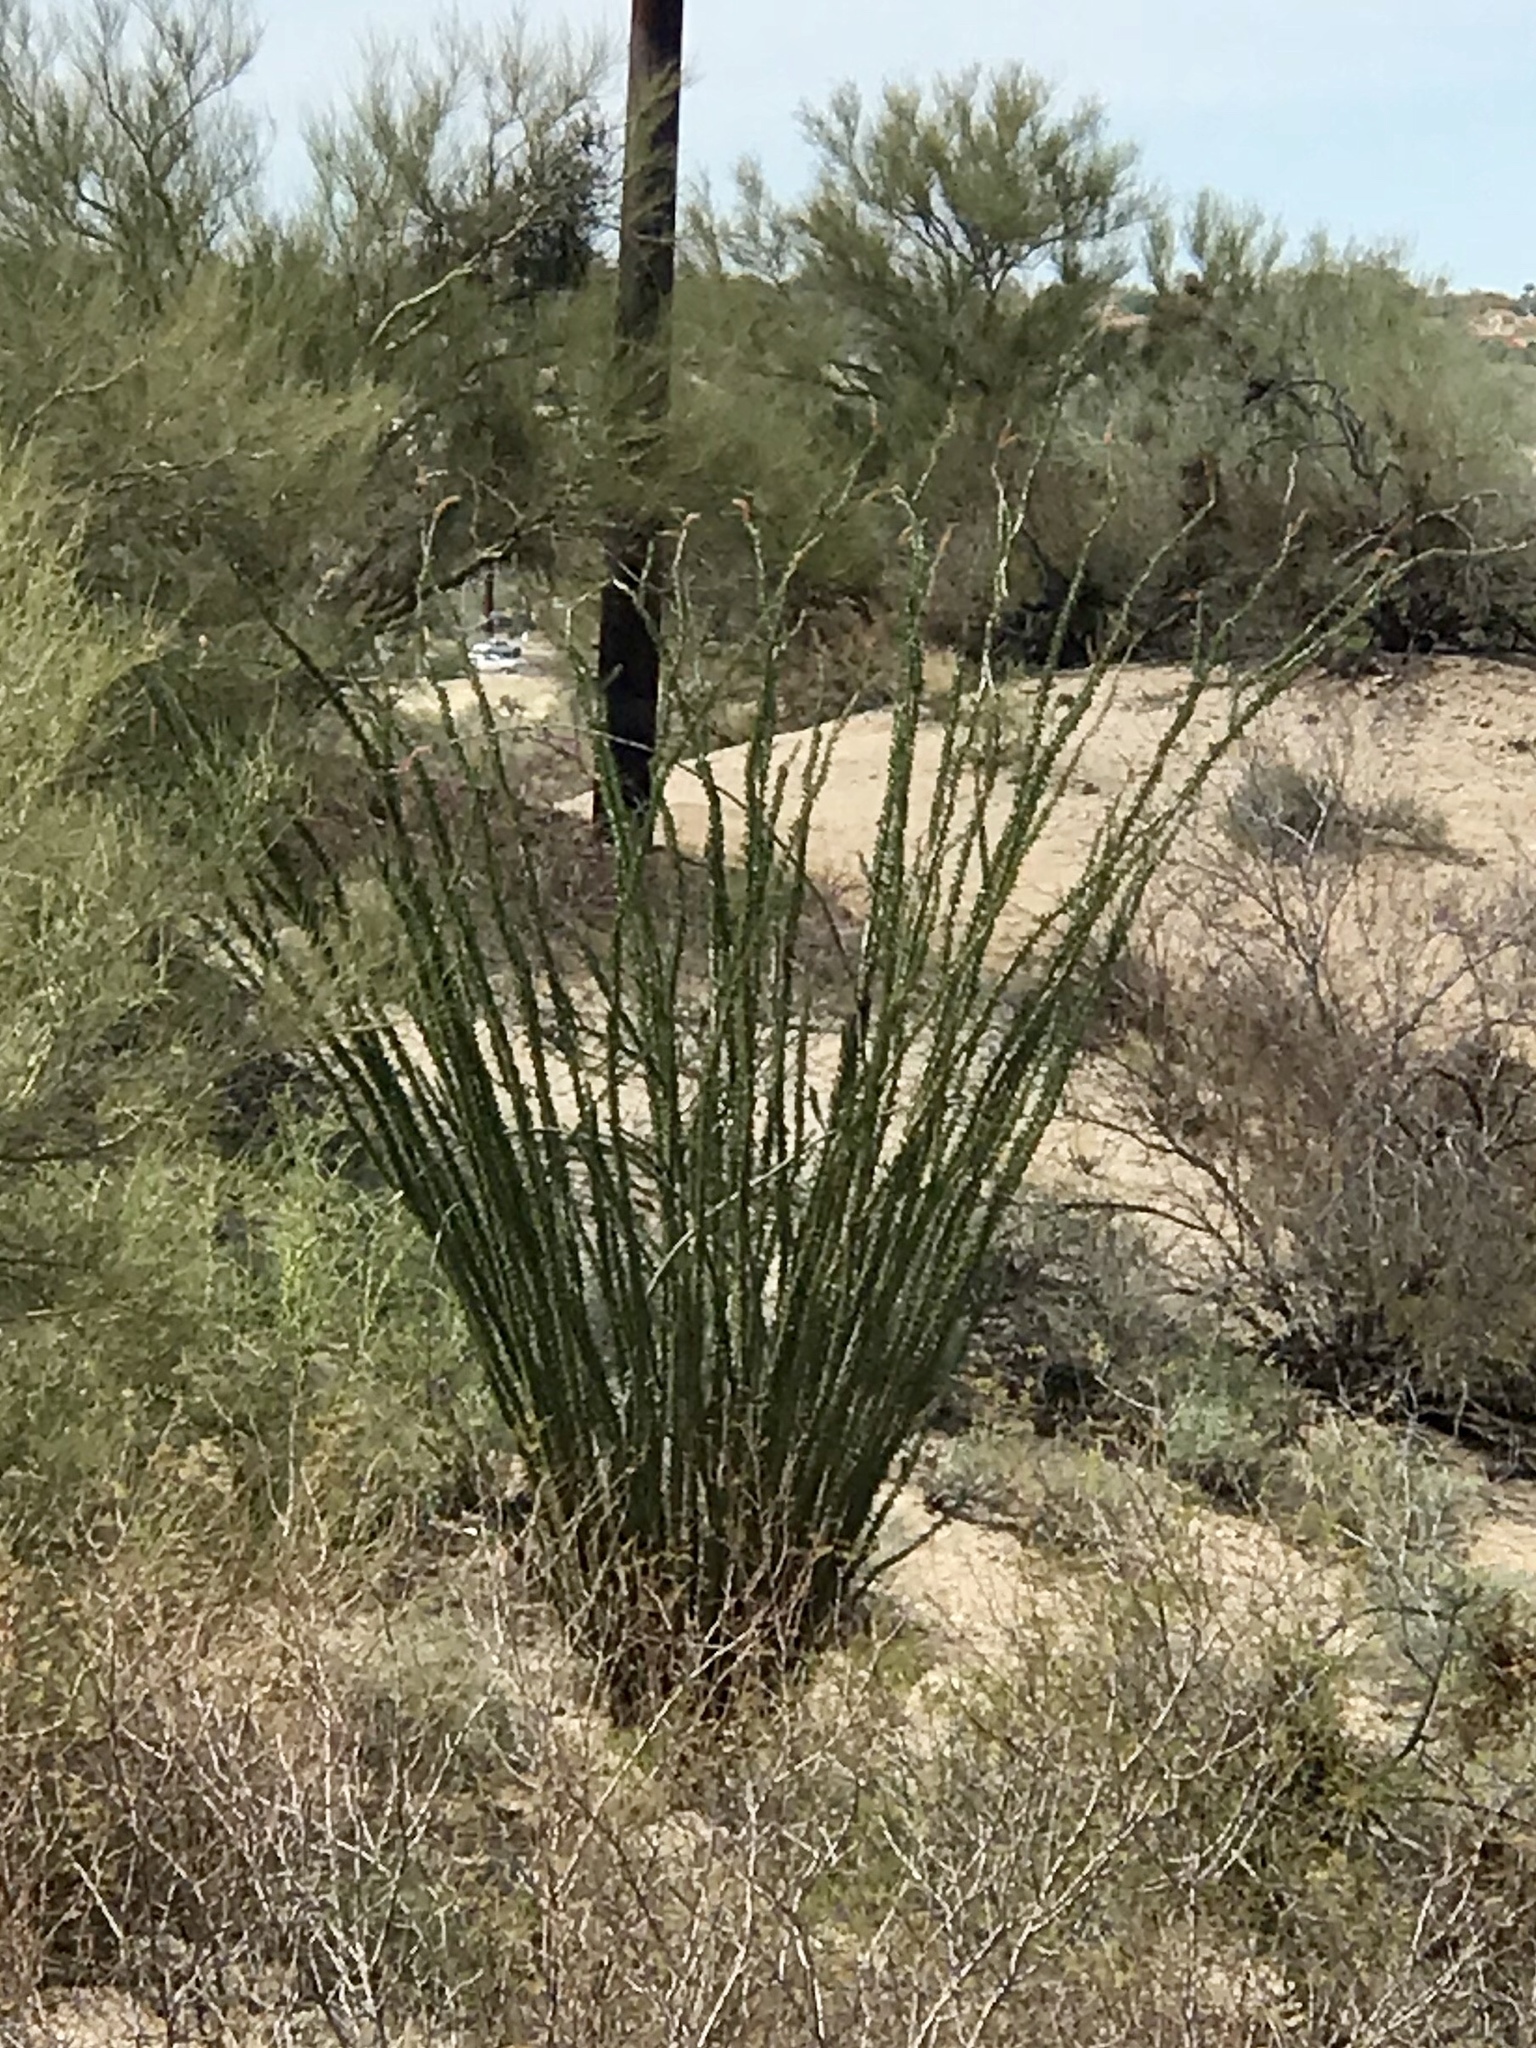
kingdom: Plantae
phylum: Tracheophyta
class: Magnoliopsida
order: Ericales
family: Fouquieriaceae
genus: Fouquieria
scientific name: Fouquieria splendens
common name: Vine-cactus
